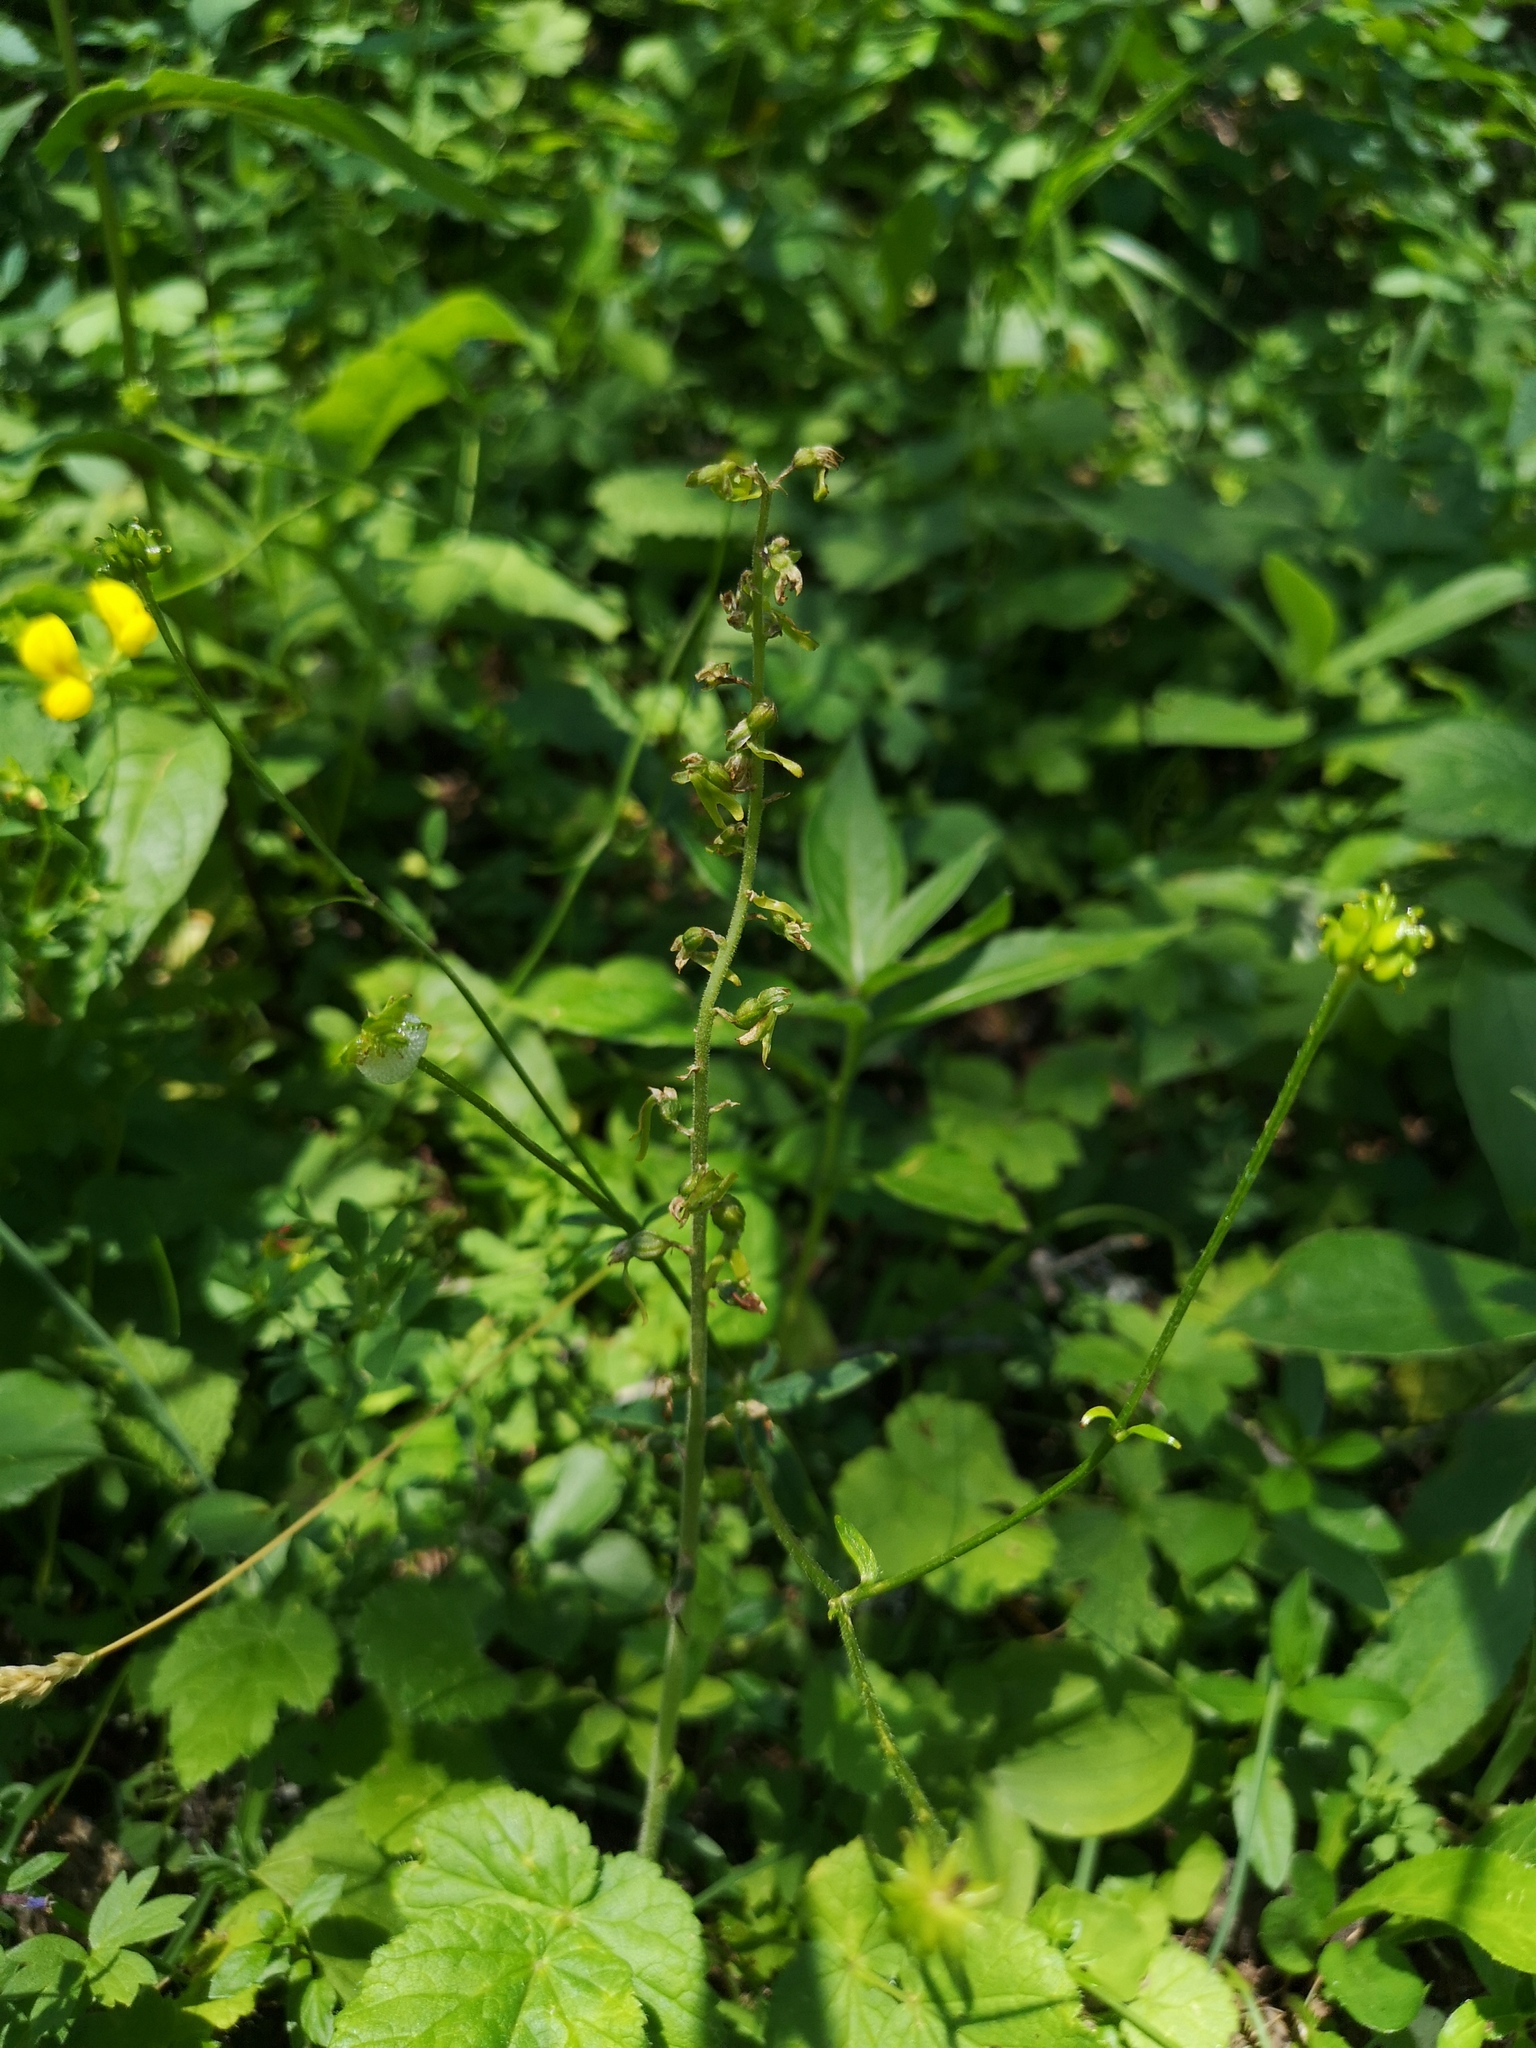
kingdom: Plantae
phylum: Tracheophyta
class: Liliopsida
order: Asparagales
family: Orchidaceae
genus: Neottia
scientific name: Neottia ovata
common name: Common twayblade
